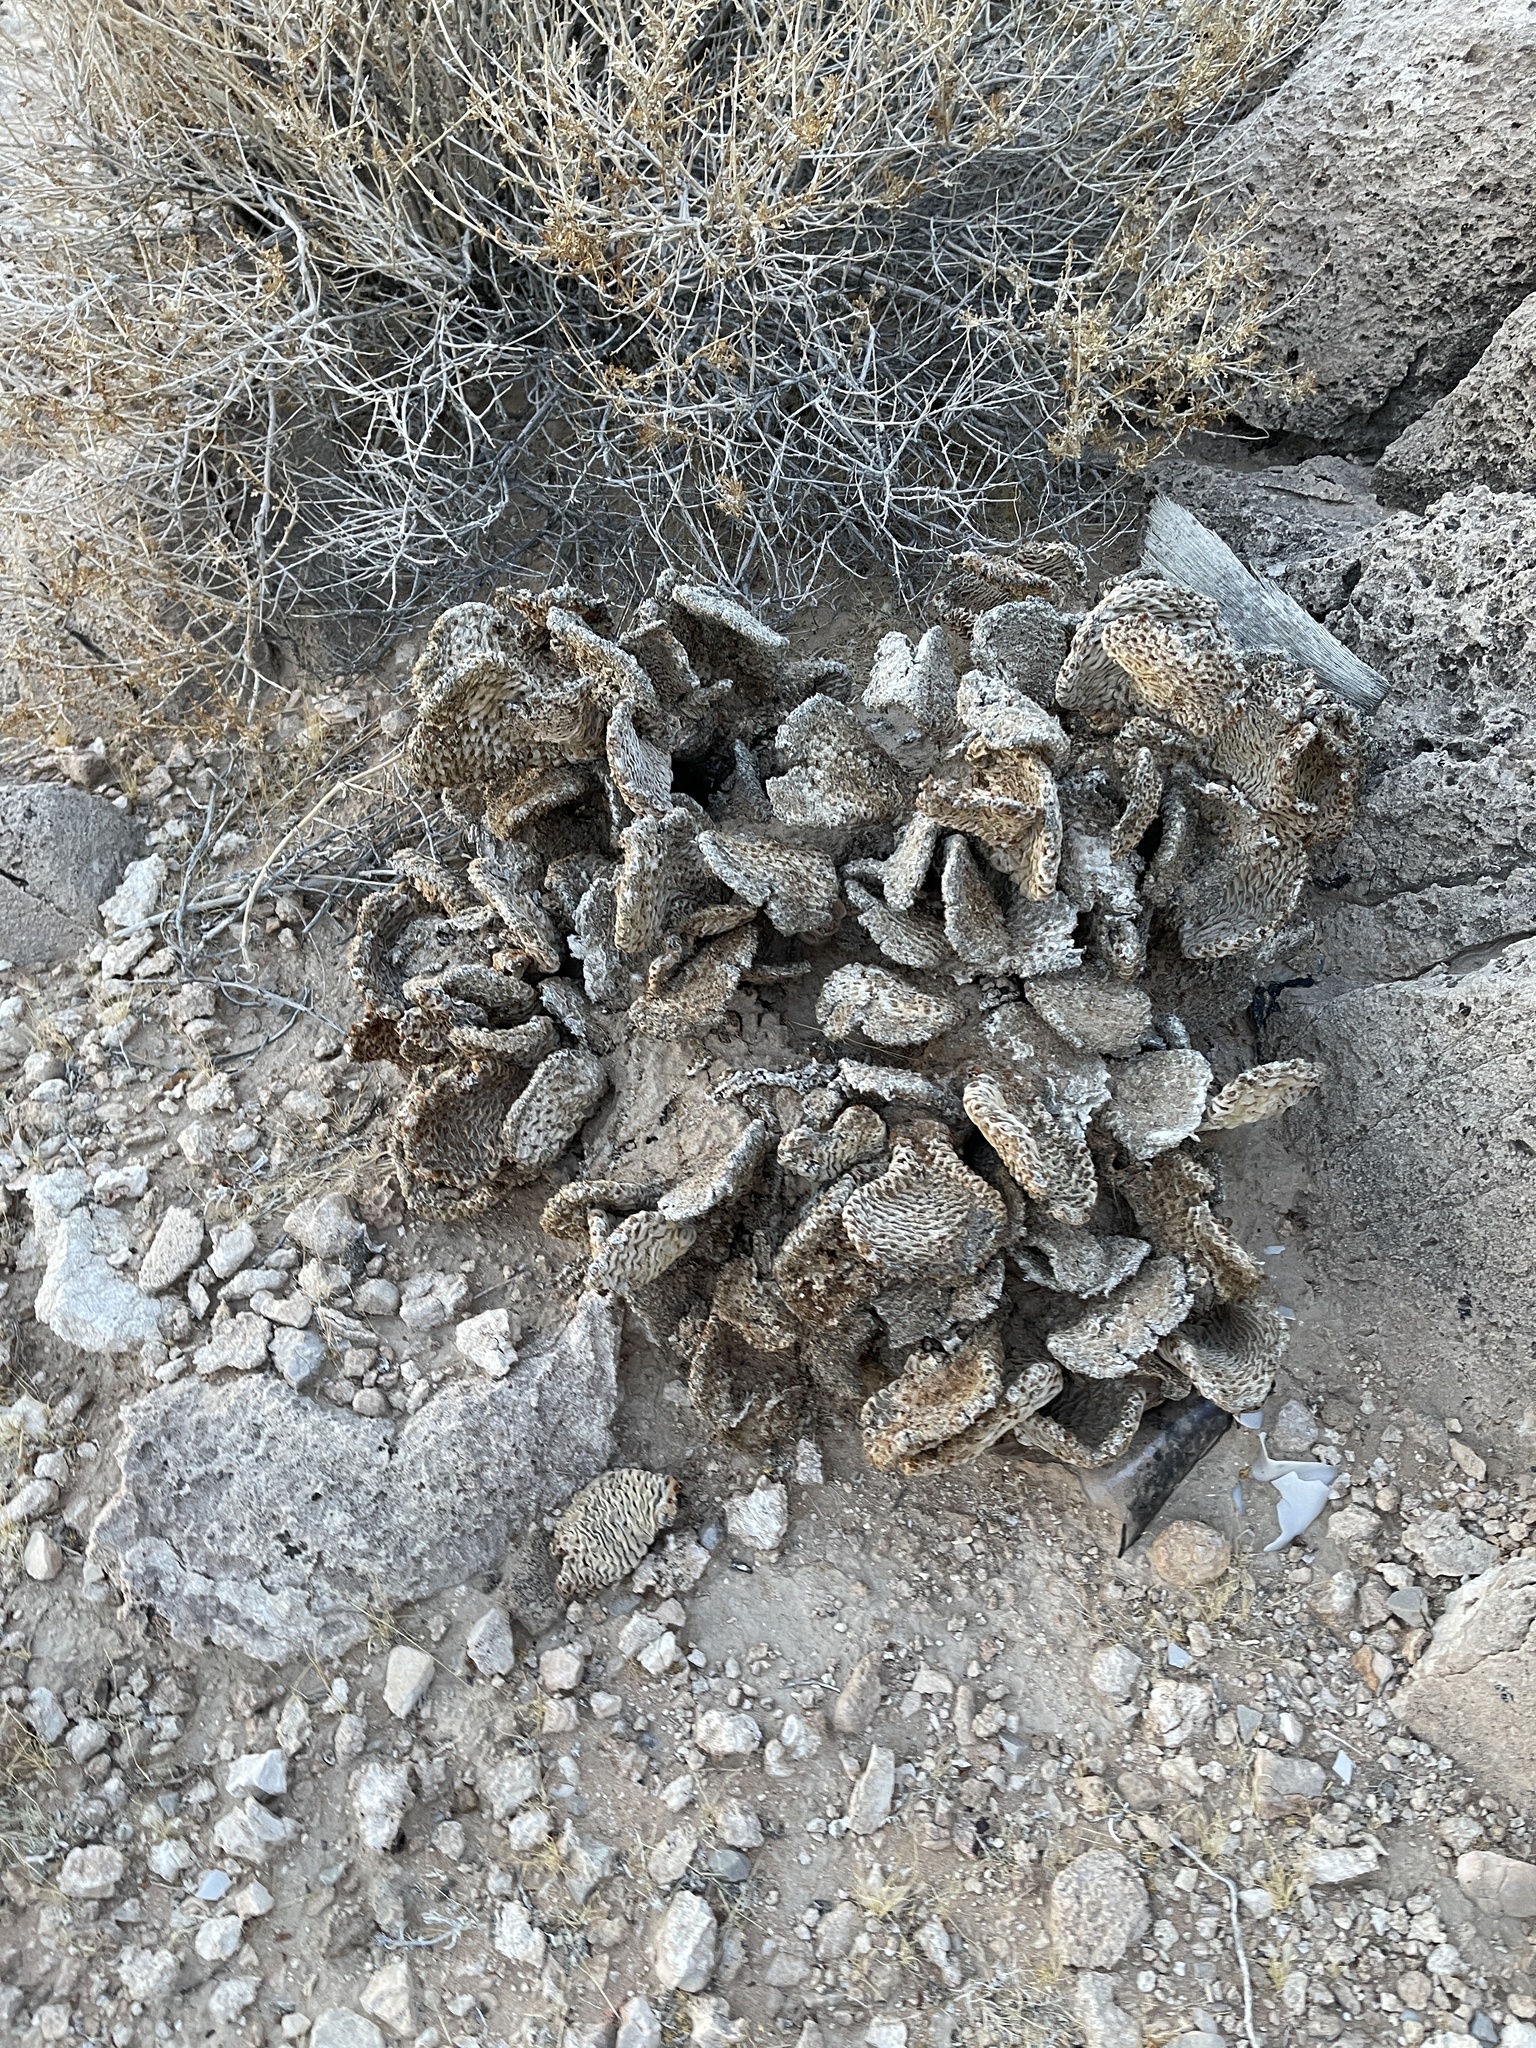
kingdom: Plantae
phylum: Tracheophyta
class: Magnoliopsida
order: Caryophyllales
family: Cactaceae
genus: Opuntia
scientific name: Opuntia basilaris
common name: Beavertail prickly-pear
